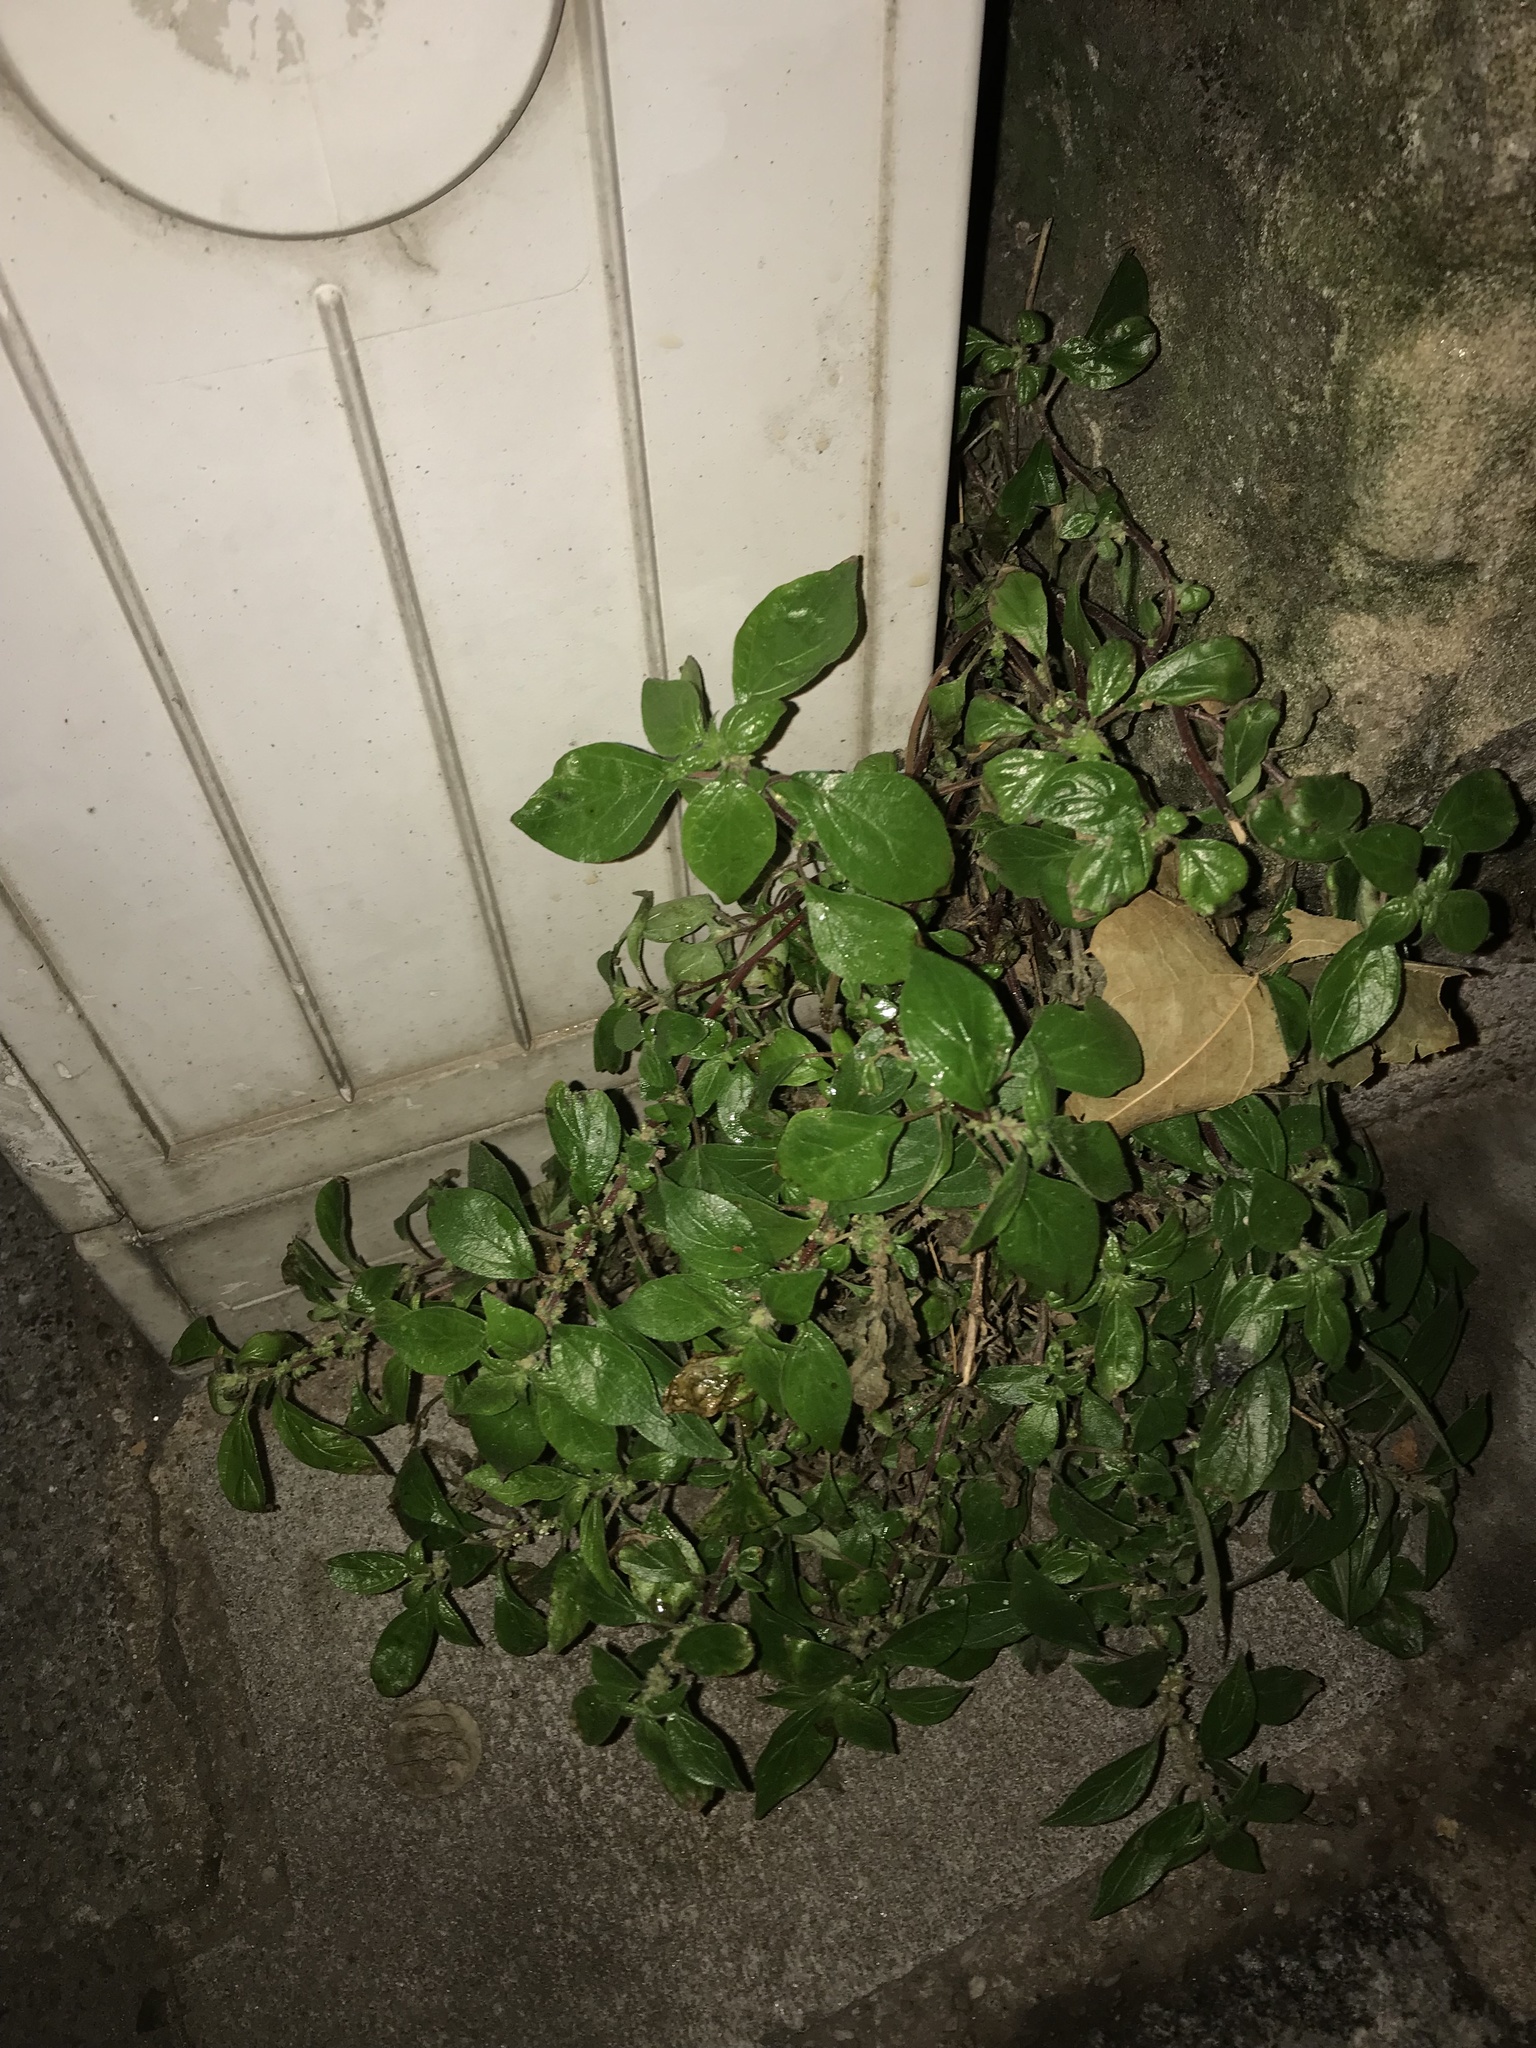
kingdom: Plantae
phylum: Tracheophyta
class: Magnoliopsida
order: Rosales
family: Urticaceae
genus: Parietaria
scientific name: Parietaria judaica
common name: Pellitory-of-the-wall
